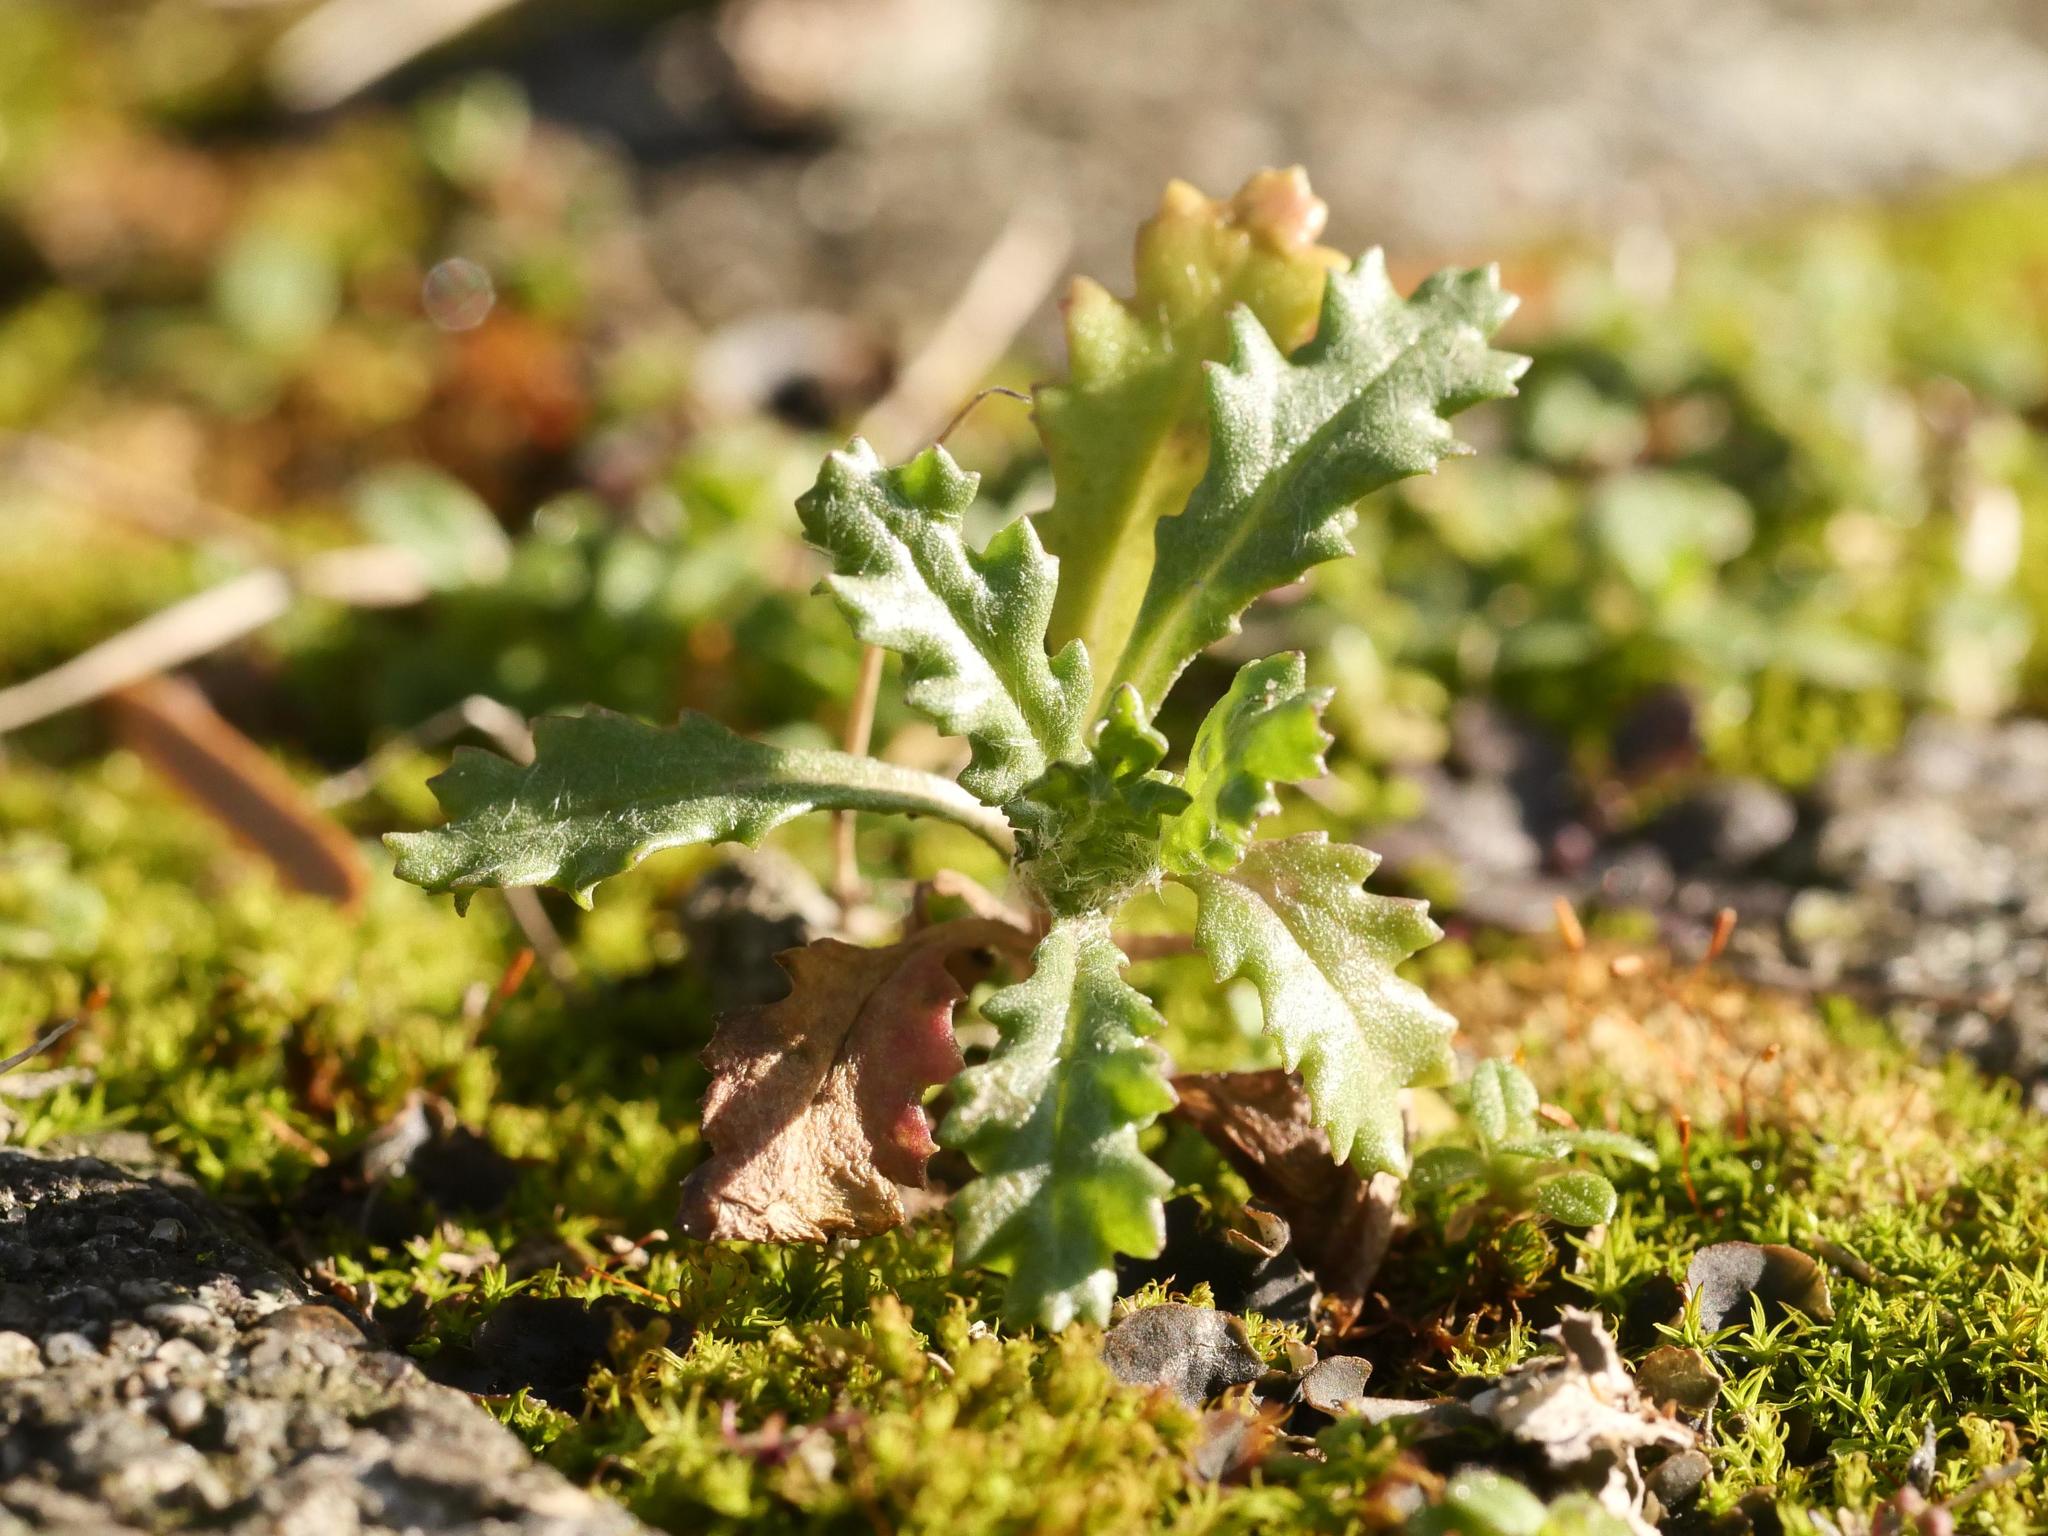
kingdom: Plantae
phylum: Tracheophyta
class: Magnoliopsida
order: Asterales
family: Asteraceae
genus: Senecio
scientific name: Senecio vulgaris
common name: Old-man-in-the-spring
